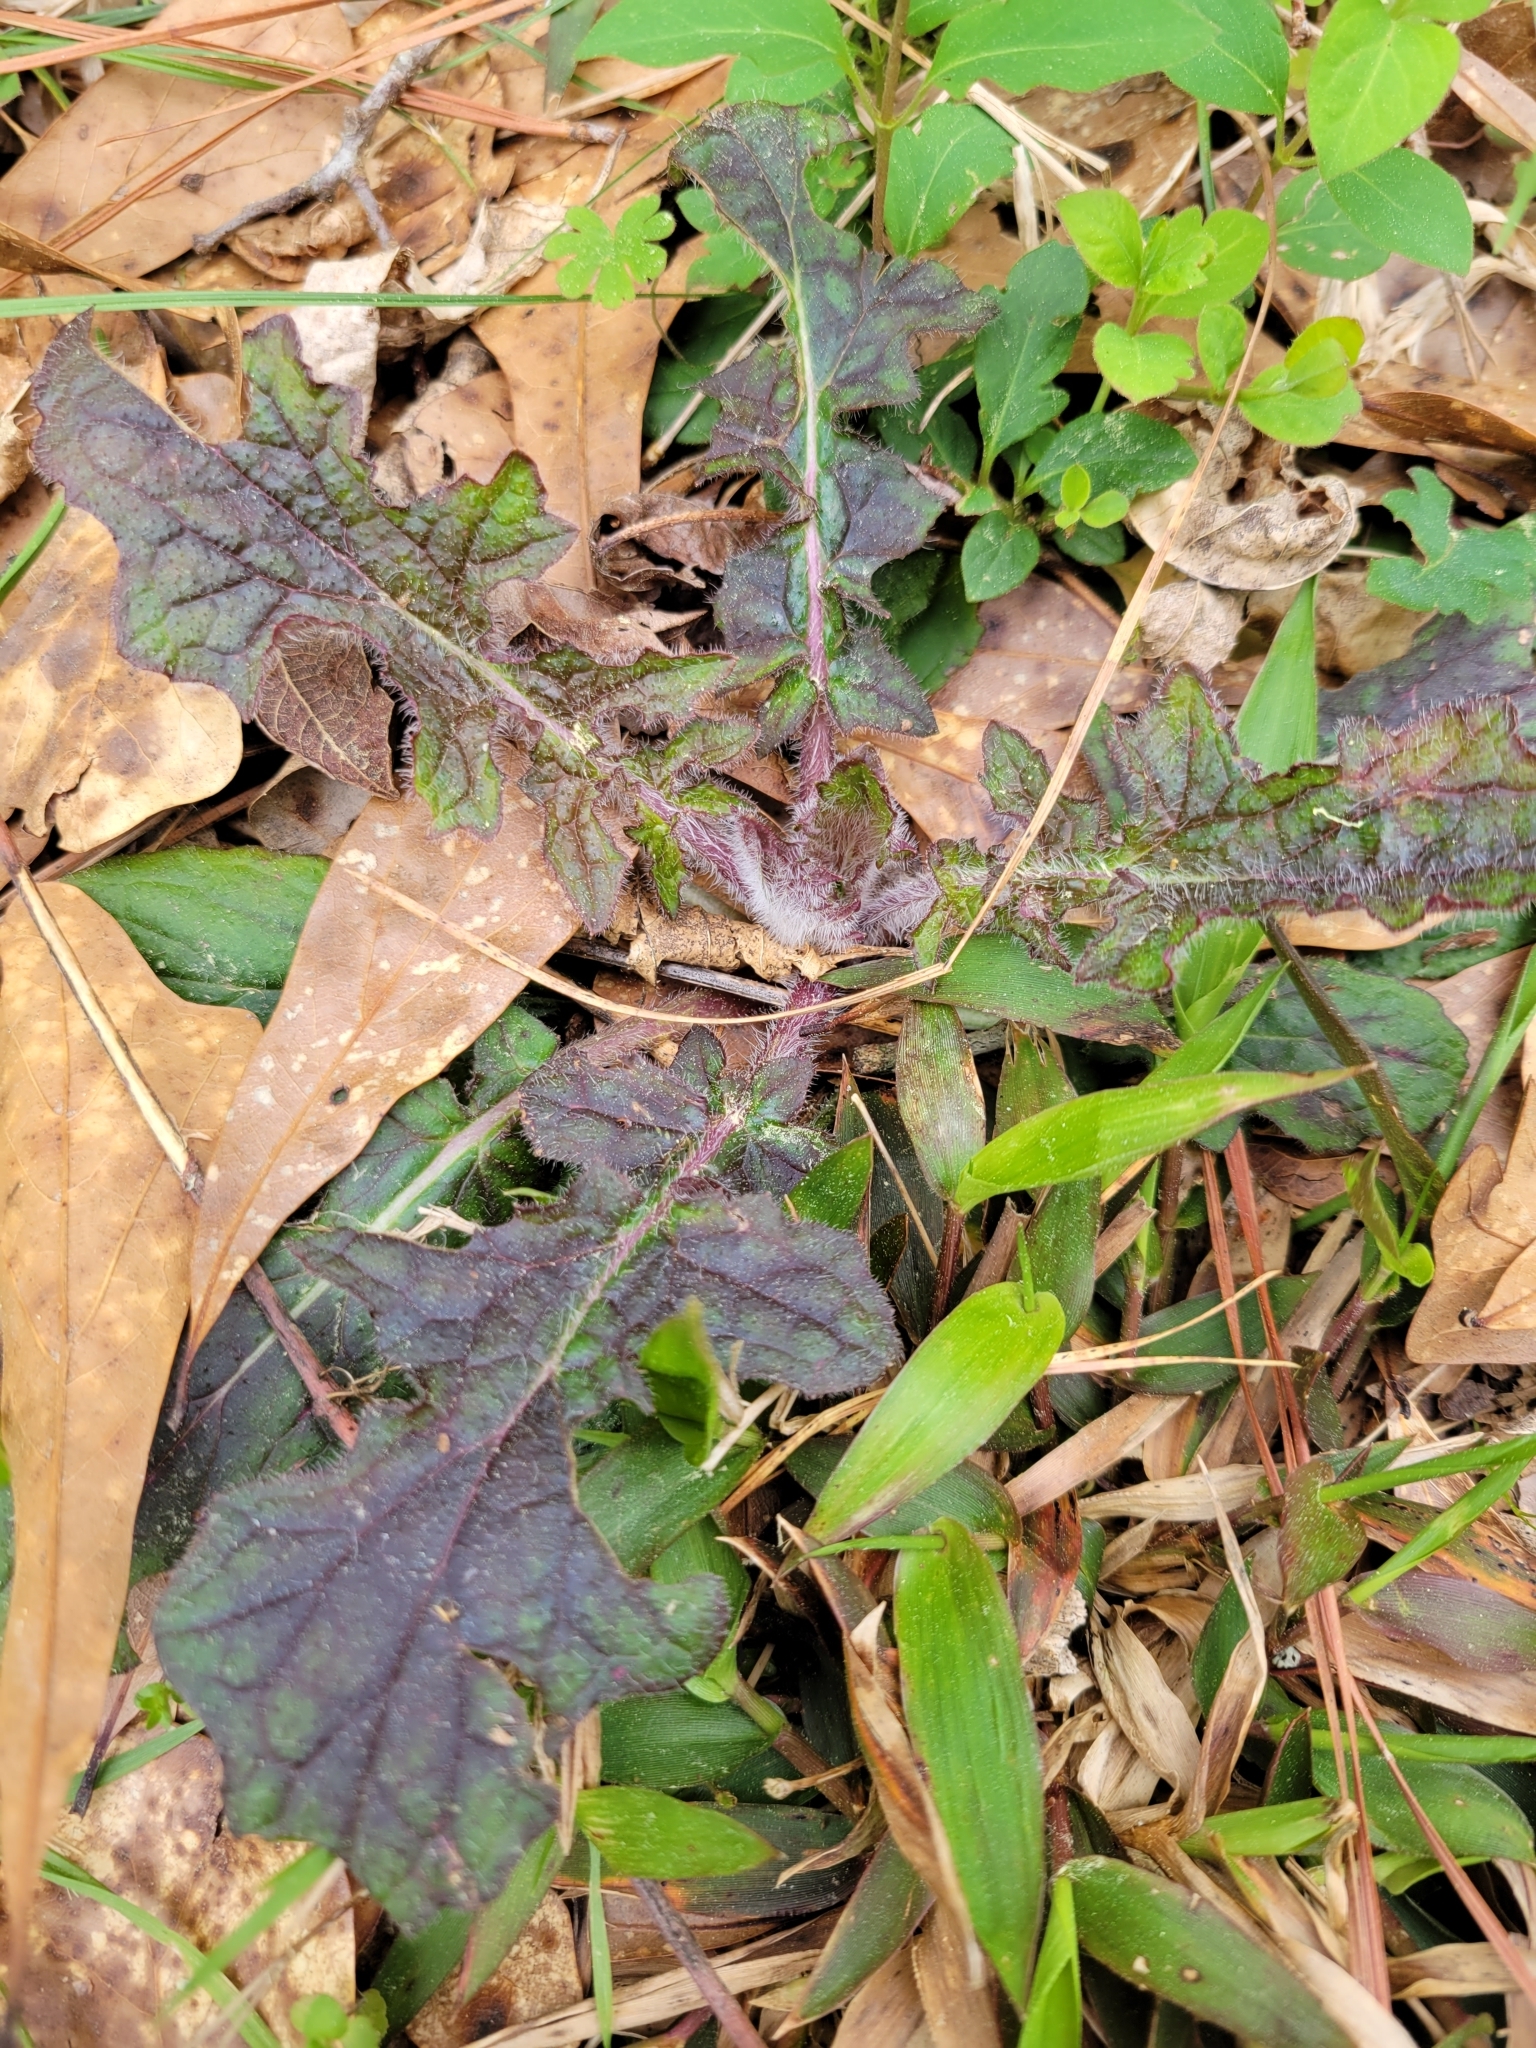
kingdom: Plantae
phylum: Tracheophyta
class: Magnoliopsida
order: Lamiales
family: Lamiaceae
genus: Salvia
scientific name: Salvia lyrata
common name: Cancerweed
